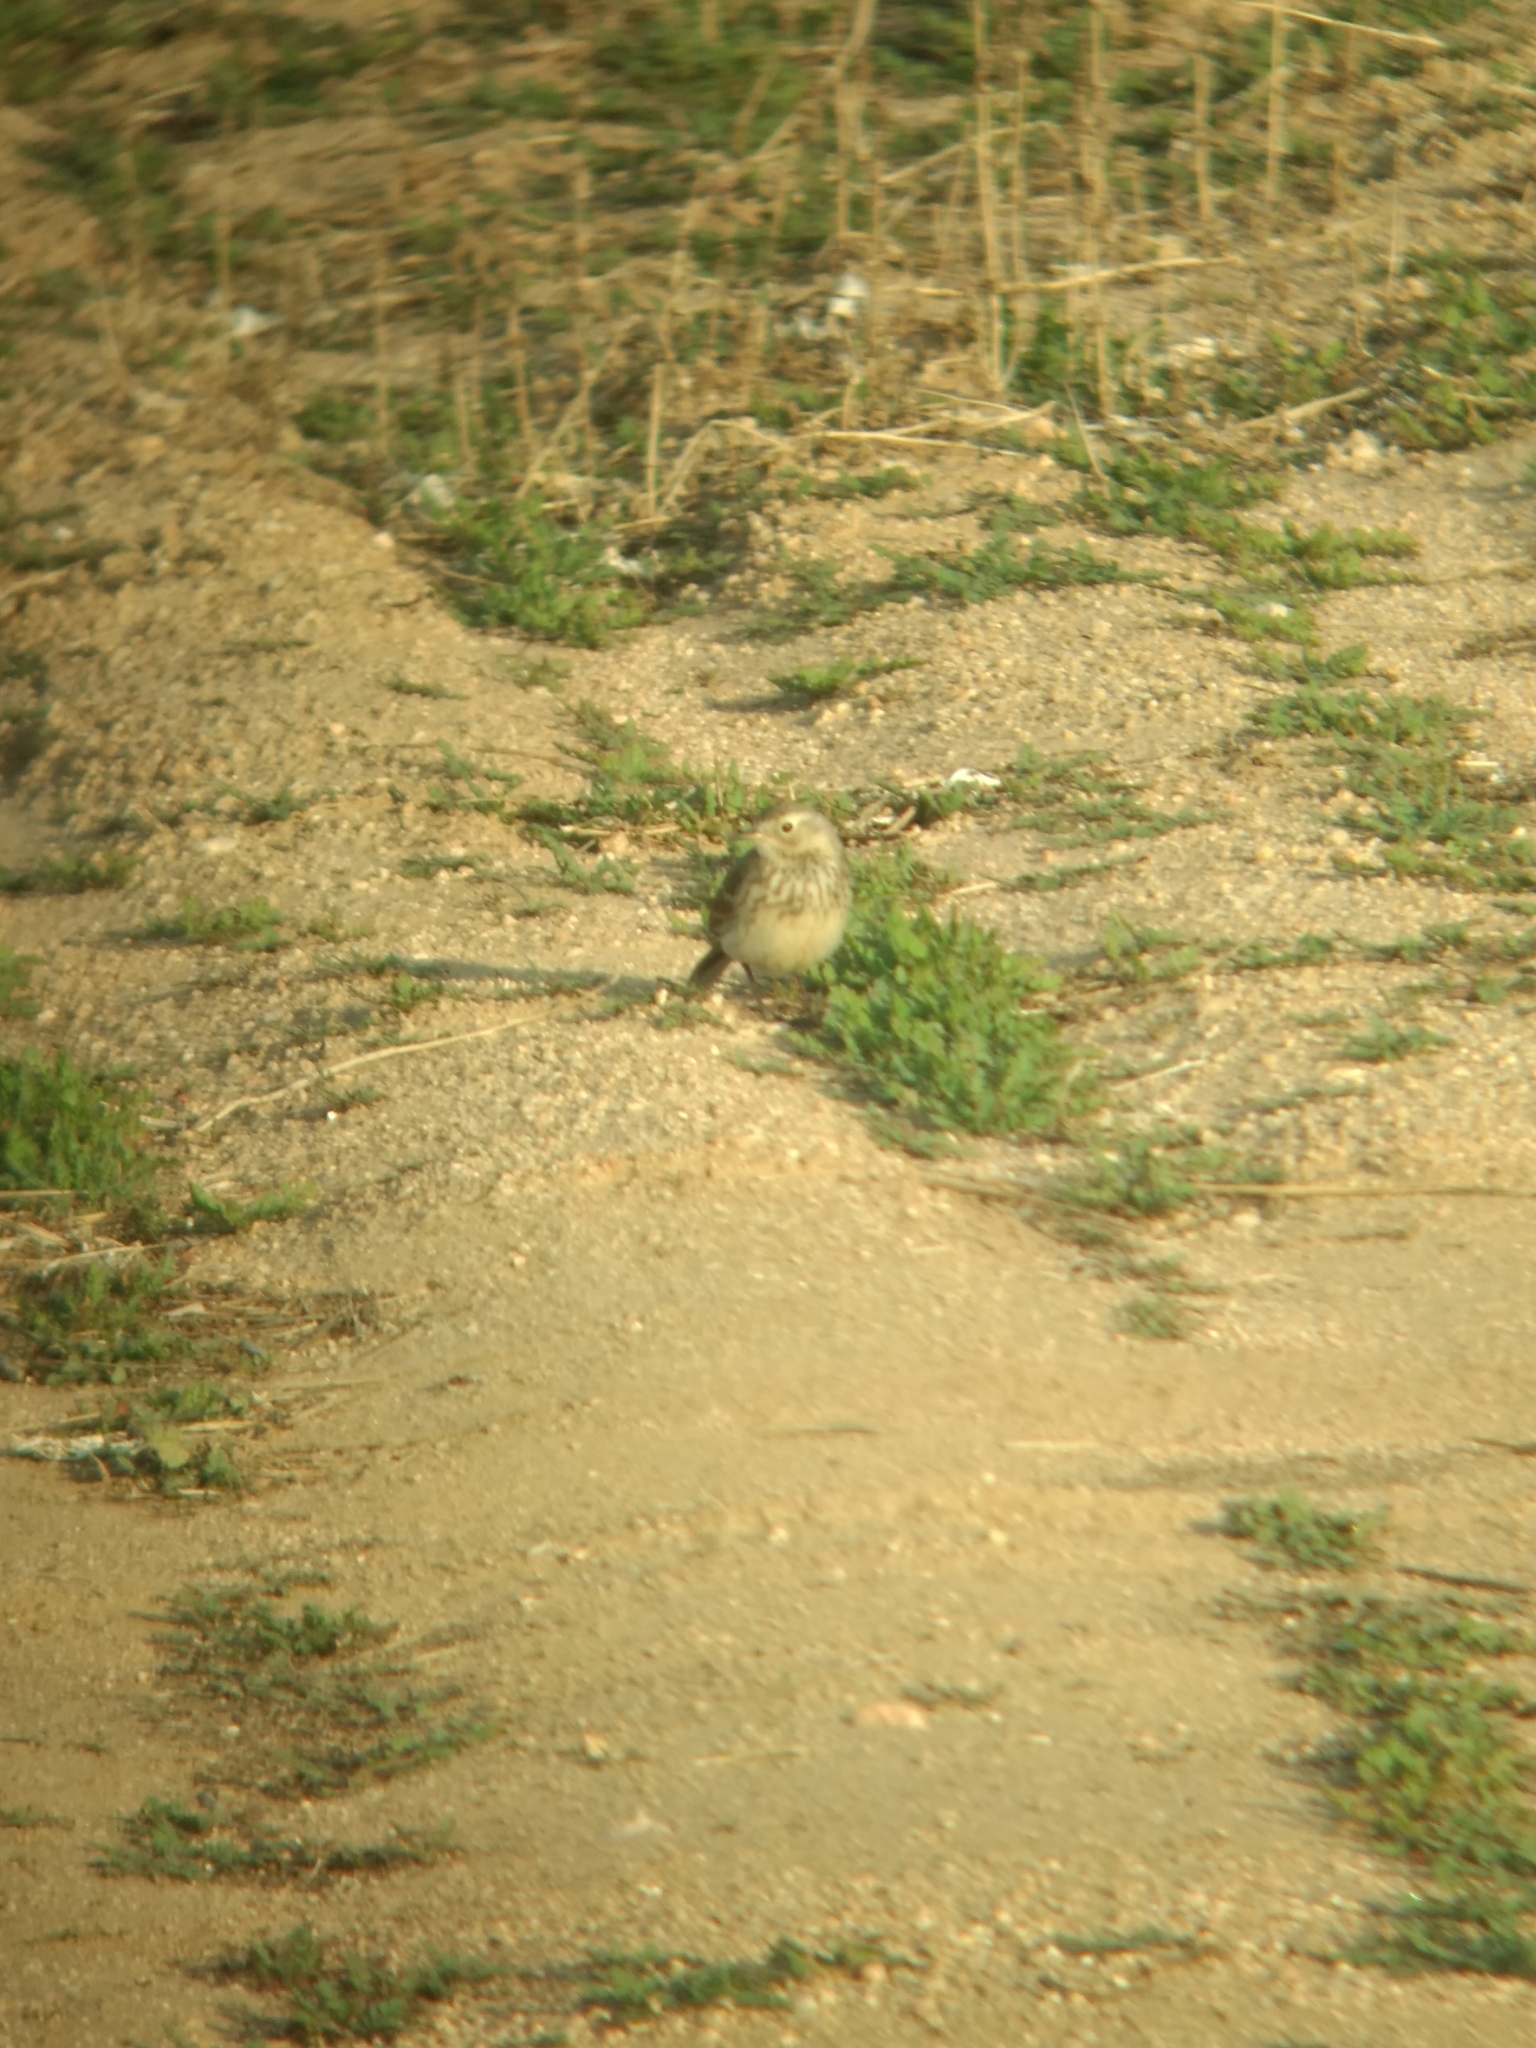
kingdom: Animalia
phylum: Chordata
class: Aves
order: Passeriformes
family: Motacillidae
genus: Anthus
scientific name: Anthus rubescens
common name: Buff-bellied pipit
